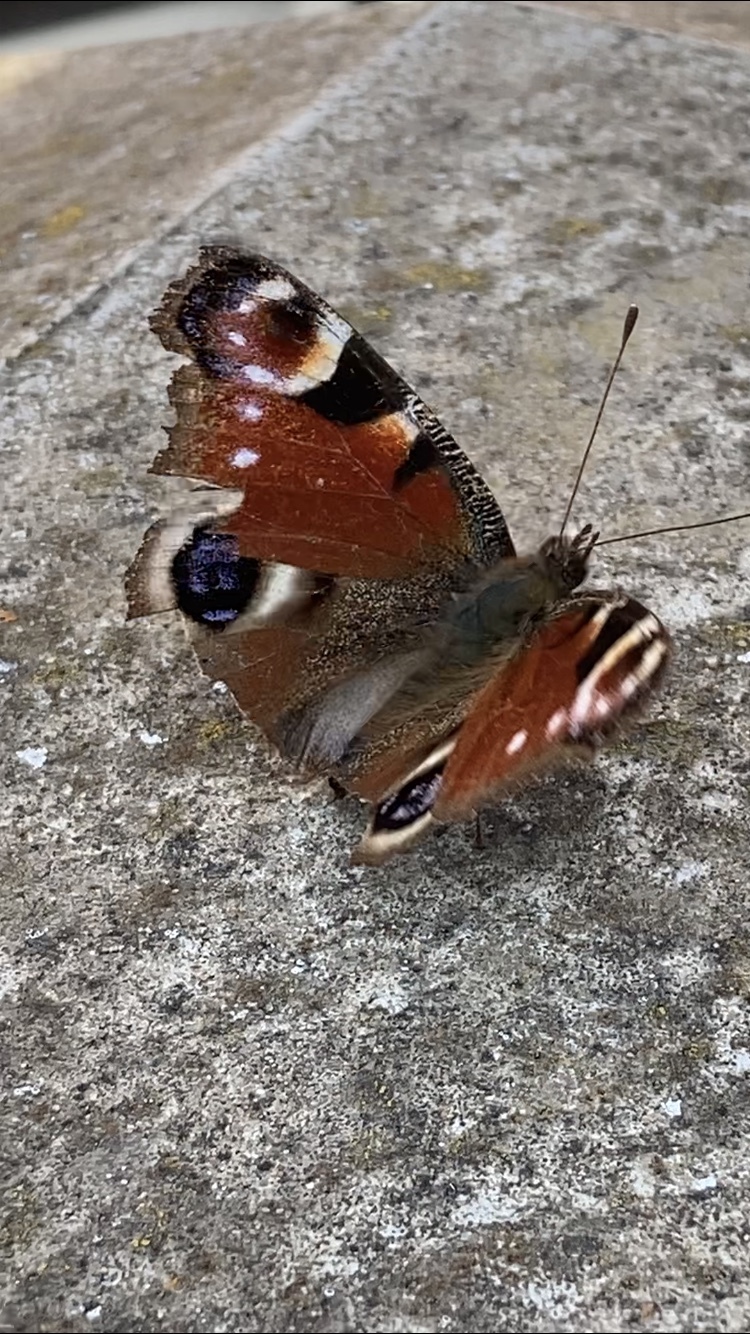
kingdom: Animalia
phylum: Arthropoda
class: Insecta
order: Lepidoptera
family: Nymphalidae
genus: Aglais
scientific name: Aglais io
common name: Peacock
